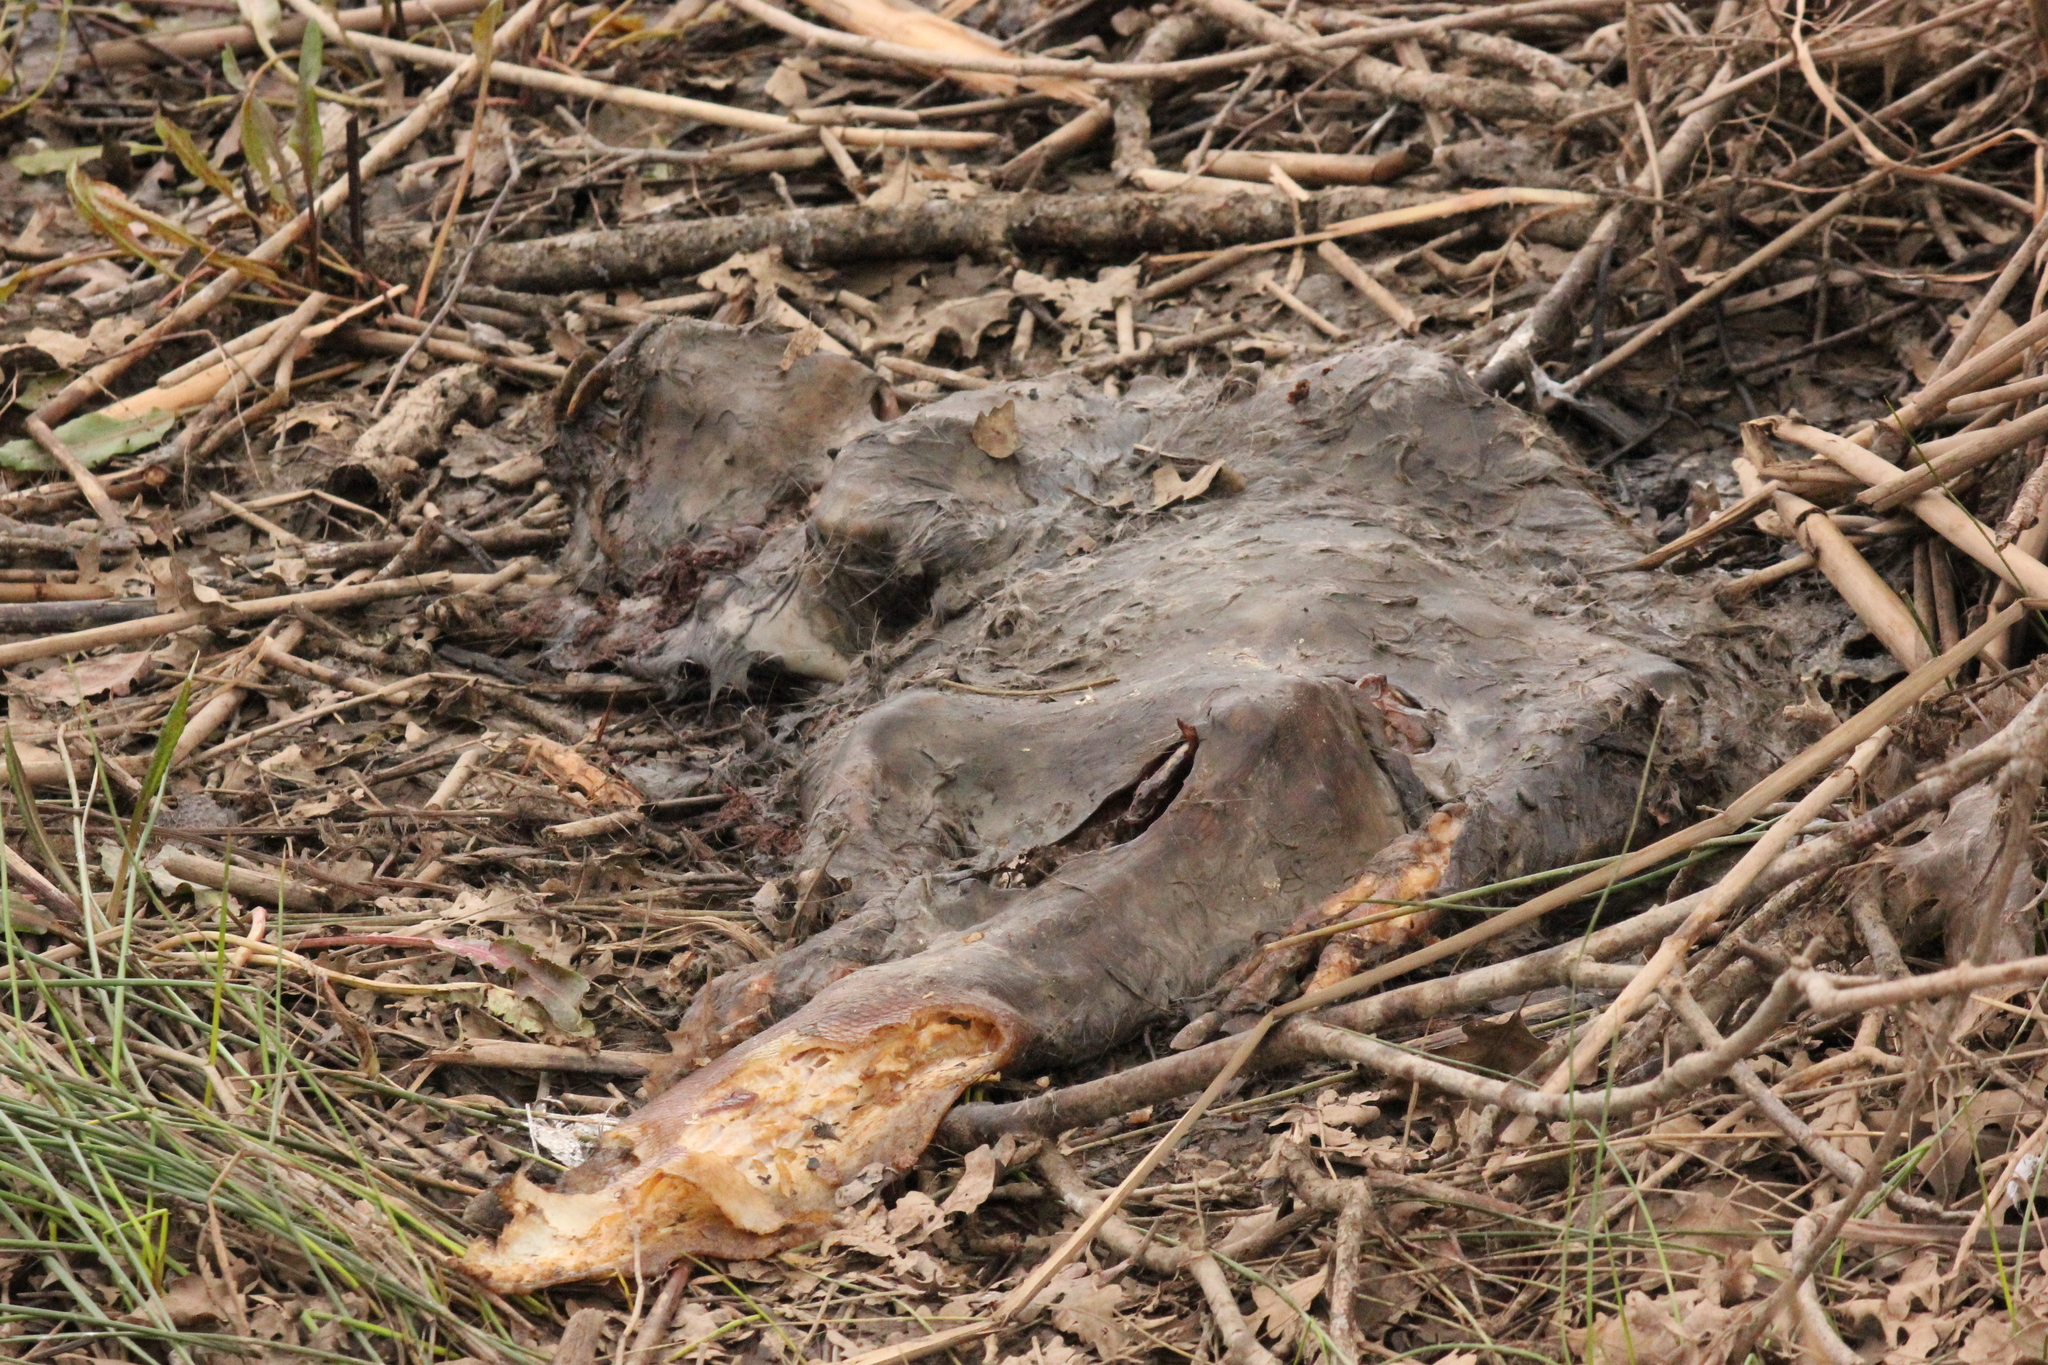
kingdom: Animalia
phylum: Chordata
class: Mammalia
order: Rodentia
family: Castoridae
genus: Castor
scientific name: Castor canadensis
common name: American beaver
